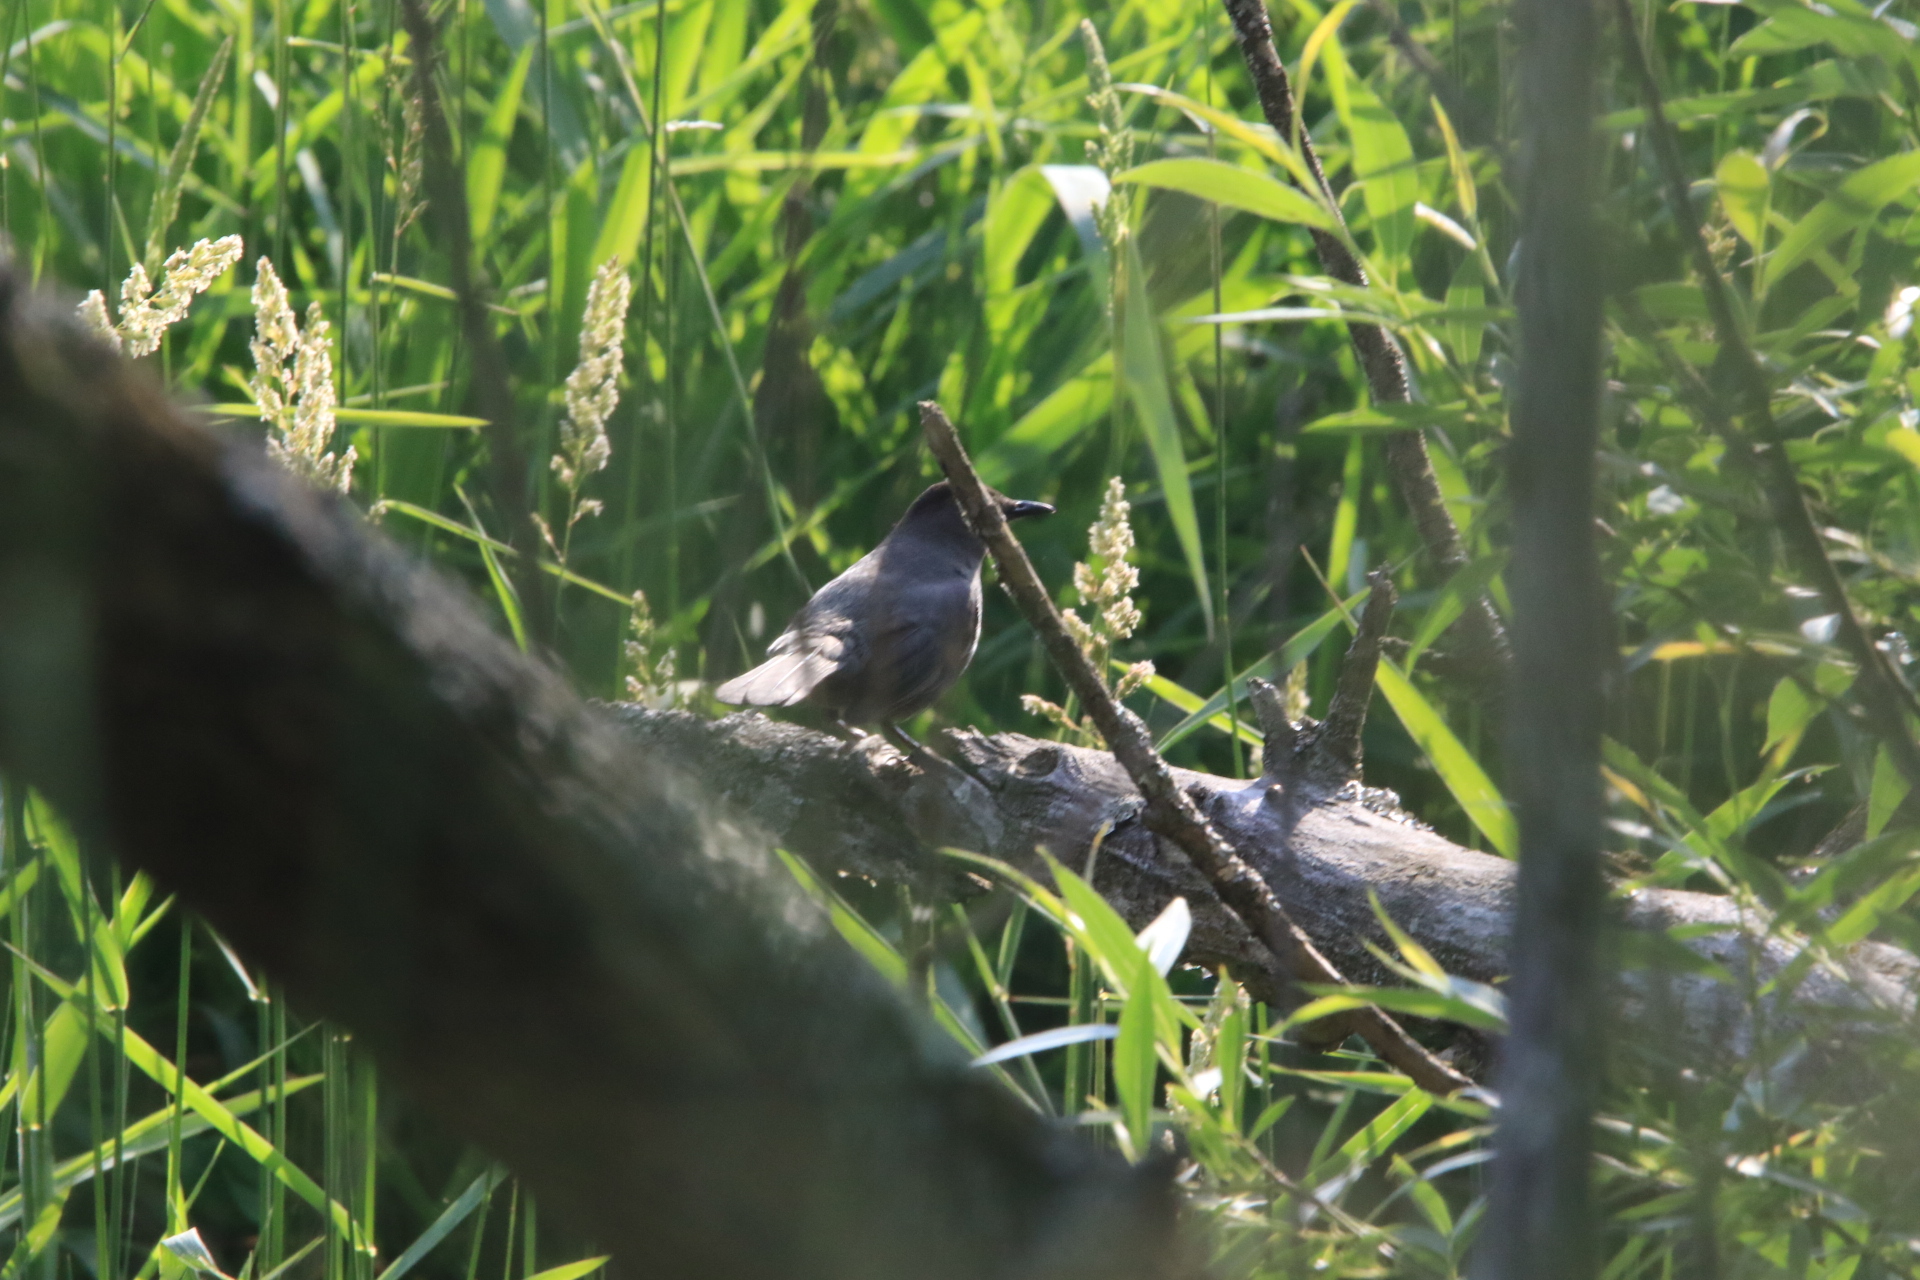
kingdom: Animalia
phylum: Chordata
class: Aves
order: Passeriformes
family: Mimidae
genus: Dumetella
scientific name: Dumetella carolinensis
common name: Gray catbird
